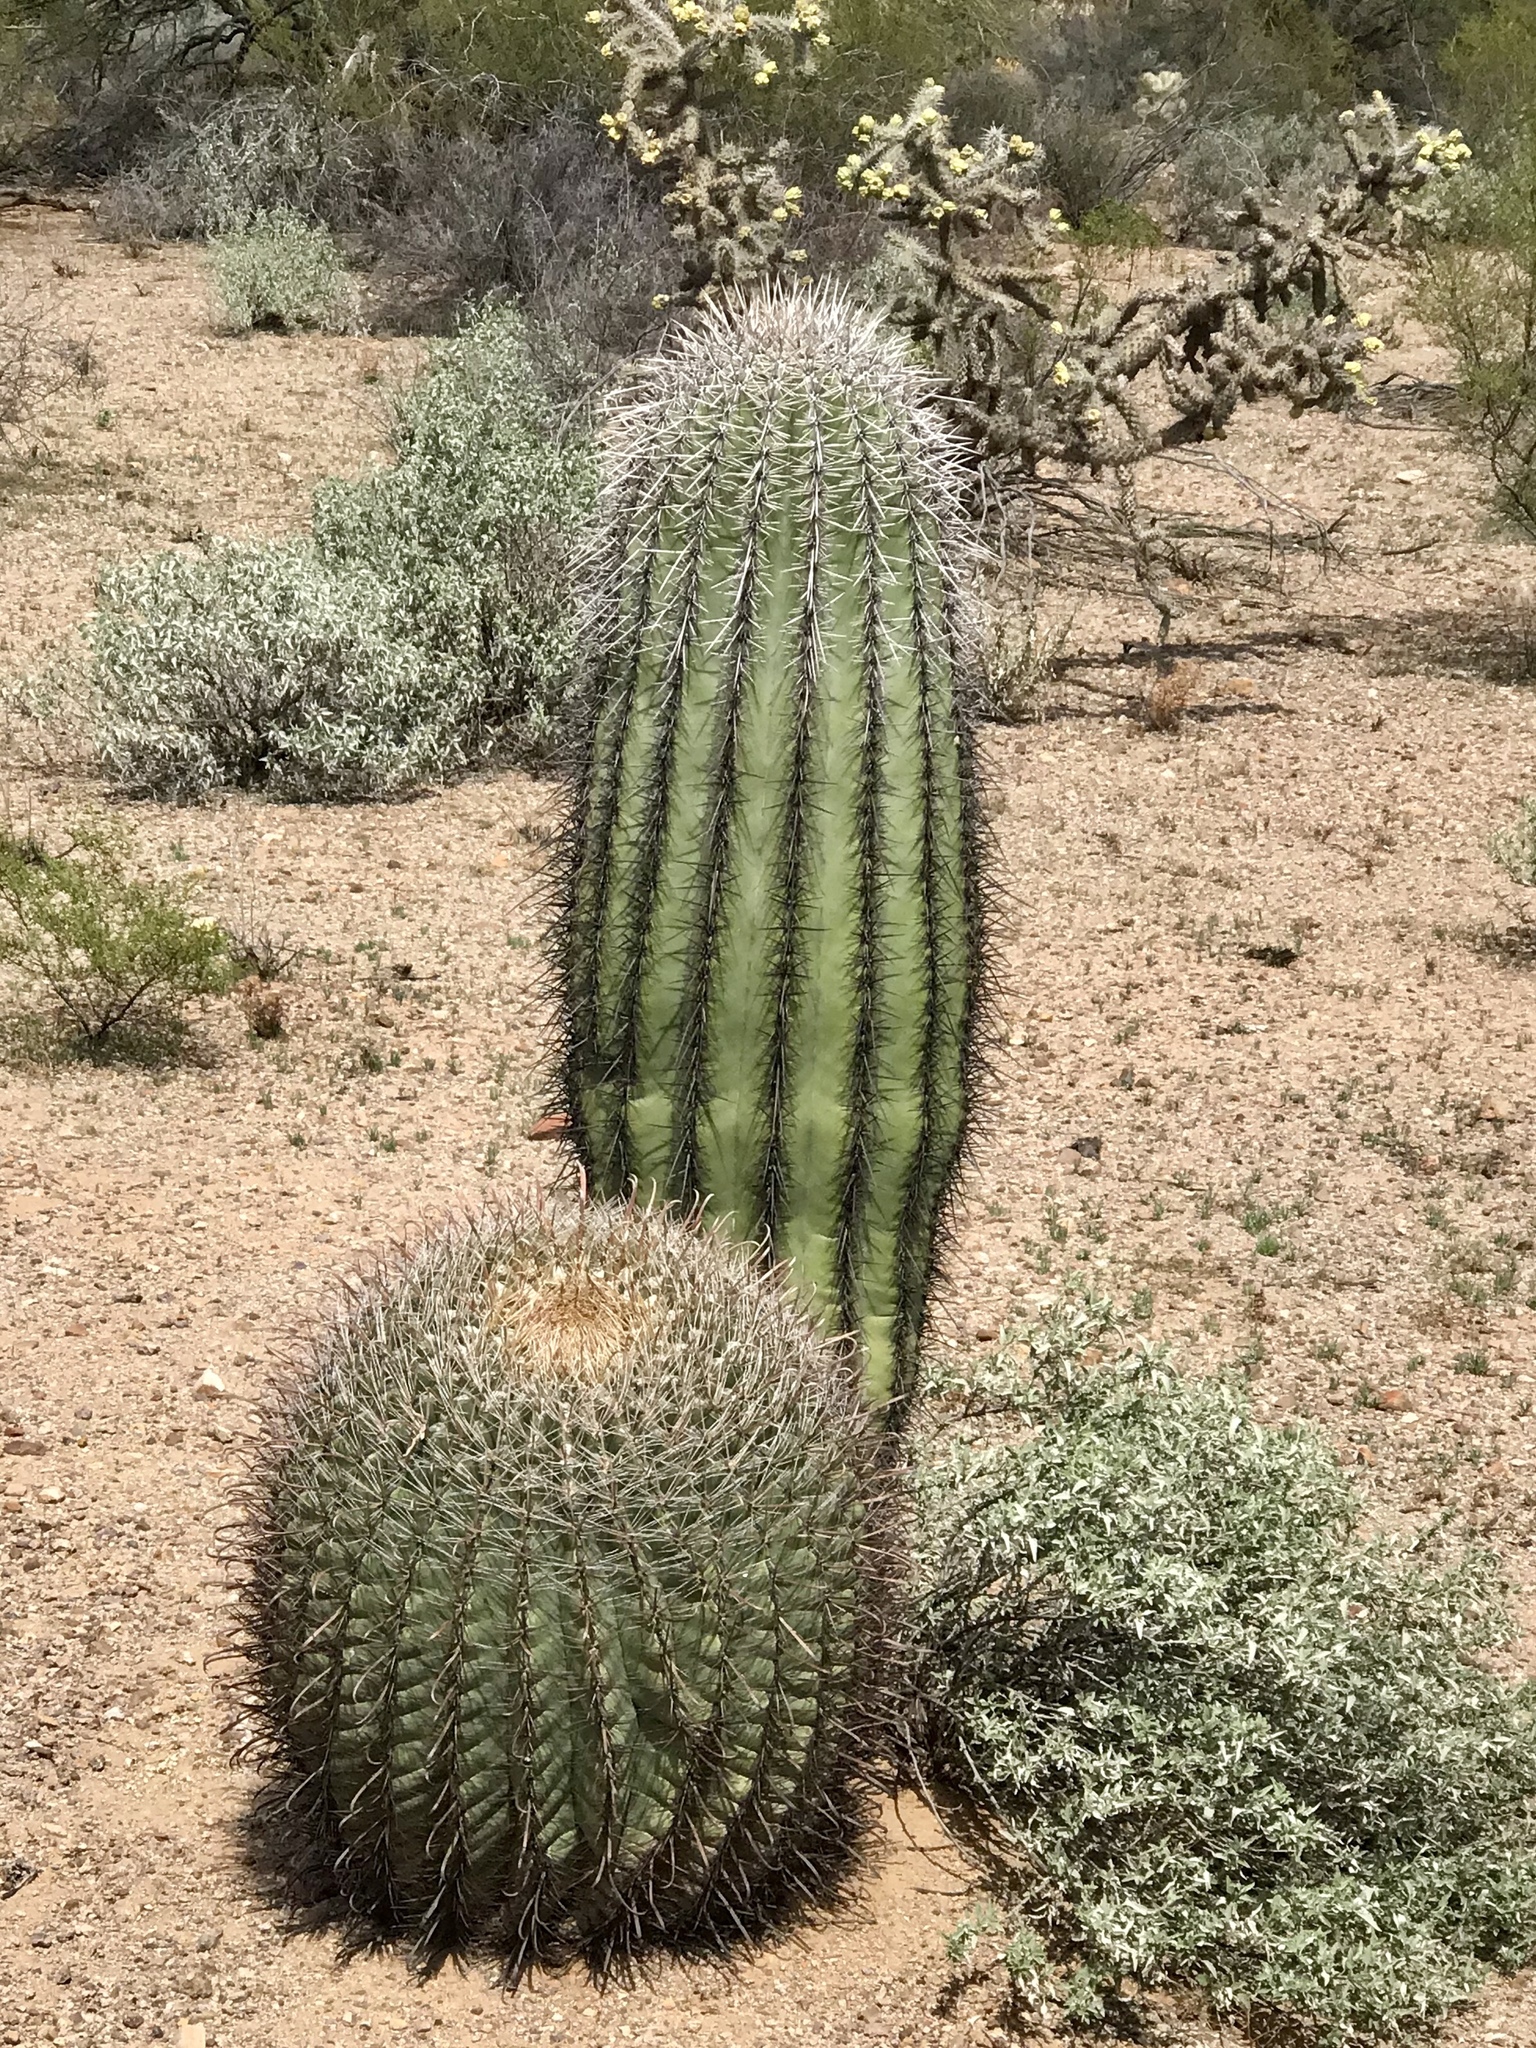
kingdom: Plantae
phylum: Tracheophyta
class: Magnoliopsida
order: Caryophyllales
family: Cactaceae
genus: Carnegiea
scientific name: Carnegiea gigantea
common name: Saguaro
